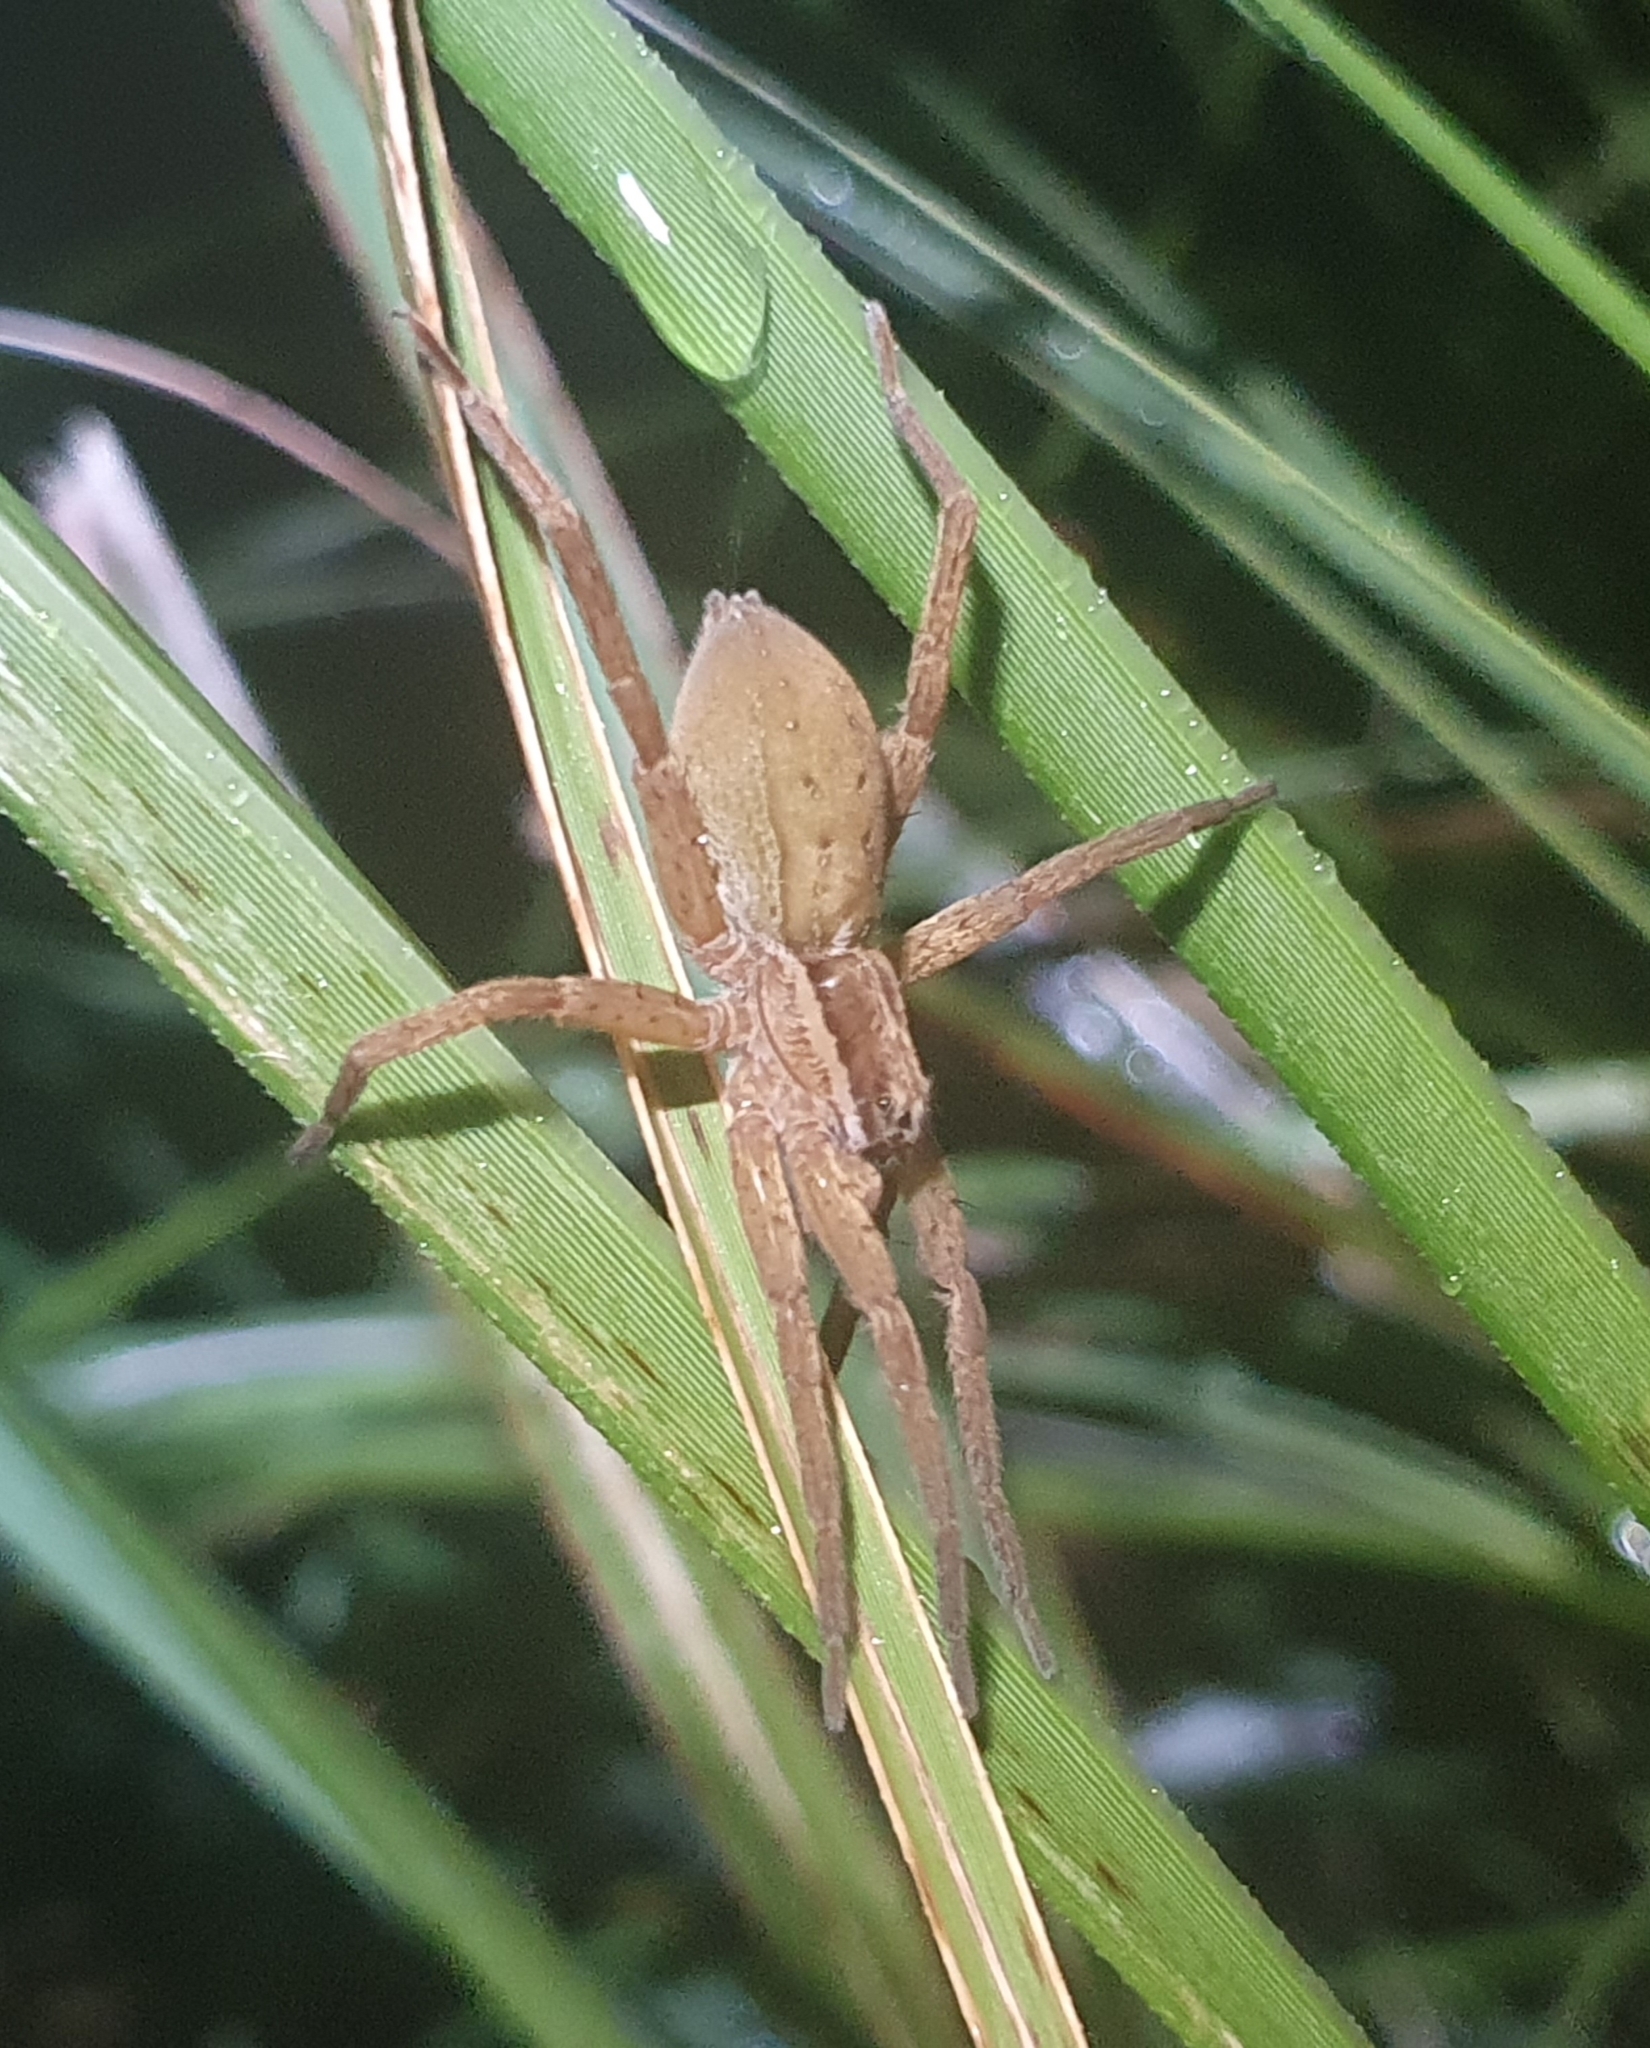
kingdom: Animalia
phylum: Arthropoda
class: Arachnida
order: Araneae
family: Pisauridae
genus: Dolomedes
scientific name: Dolomedes minor
